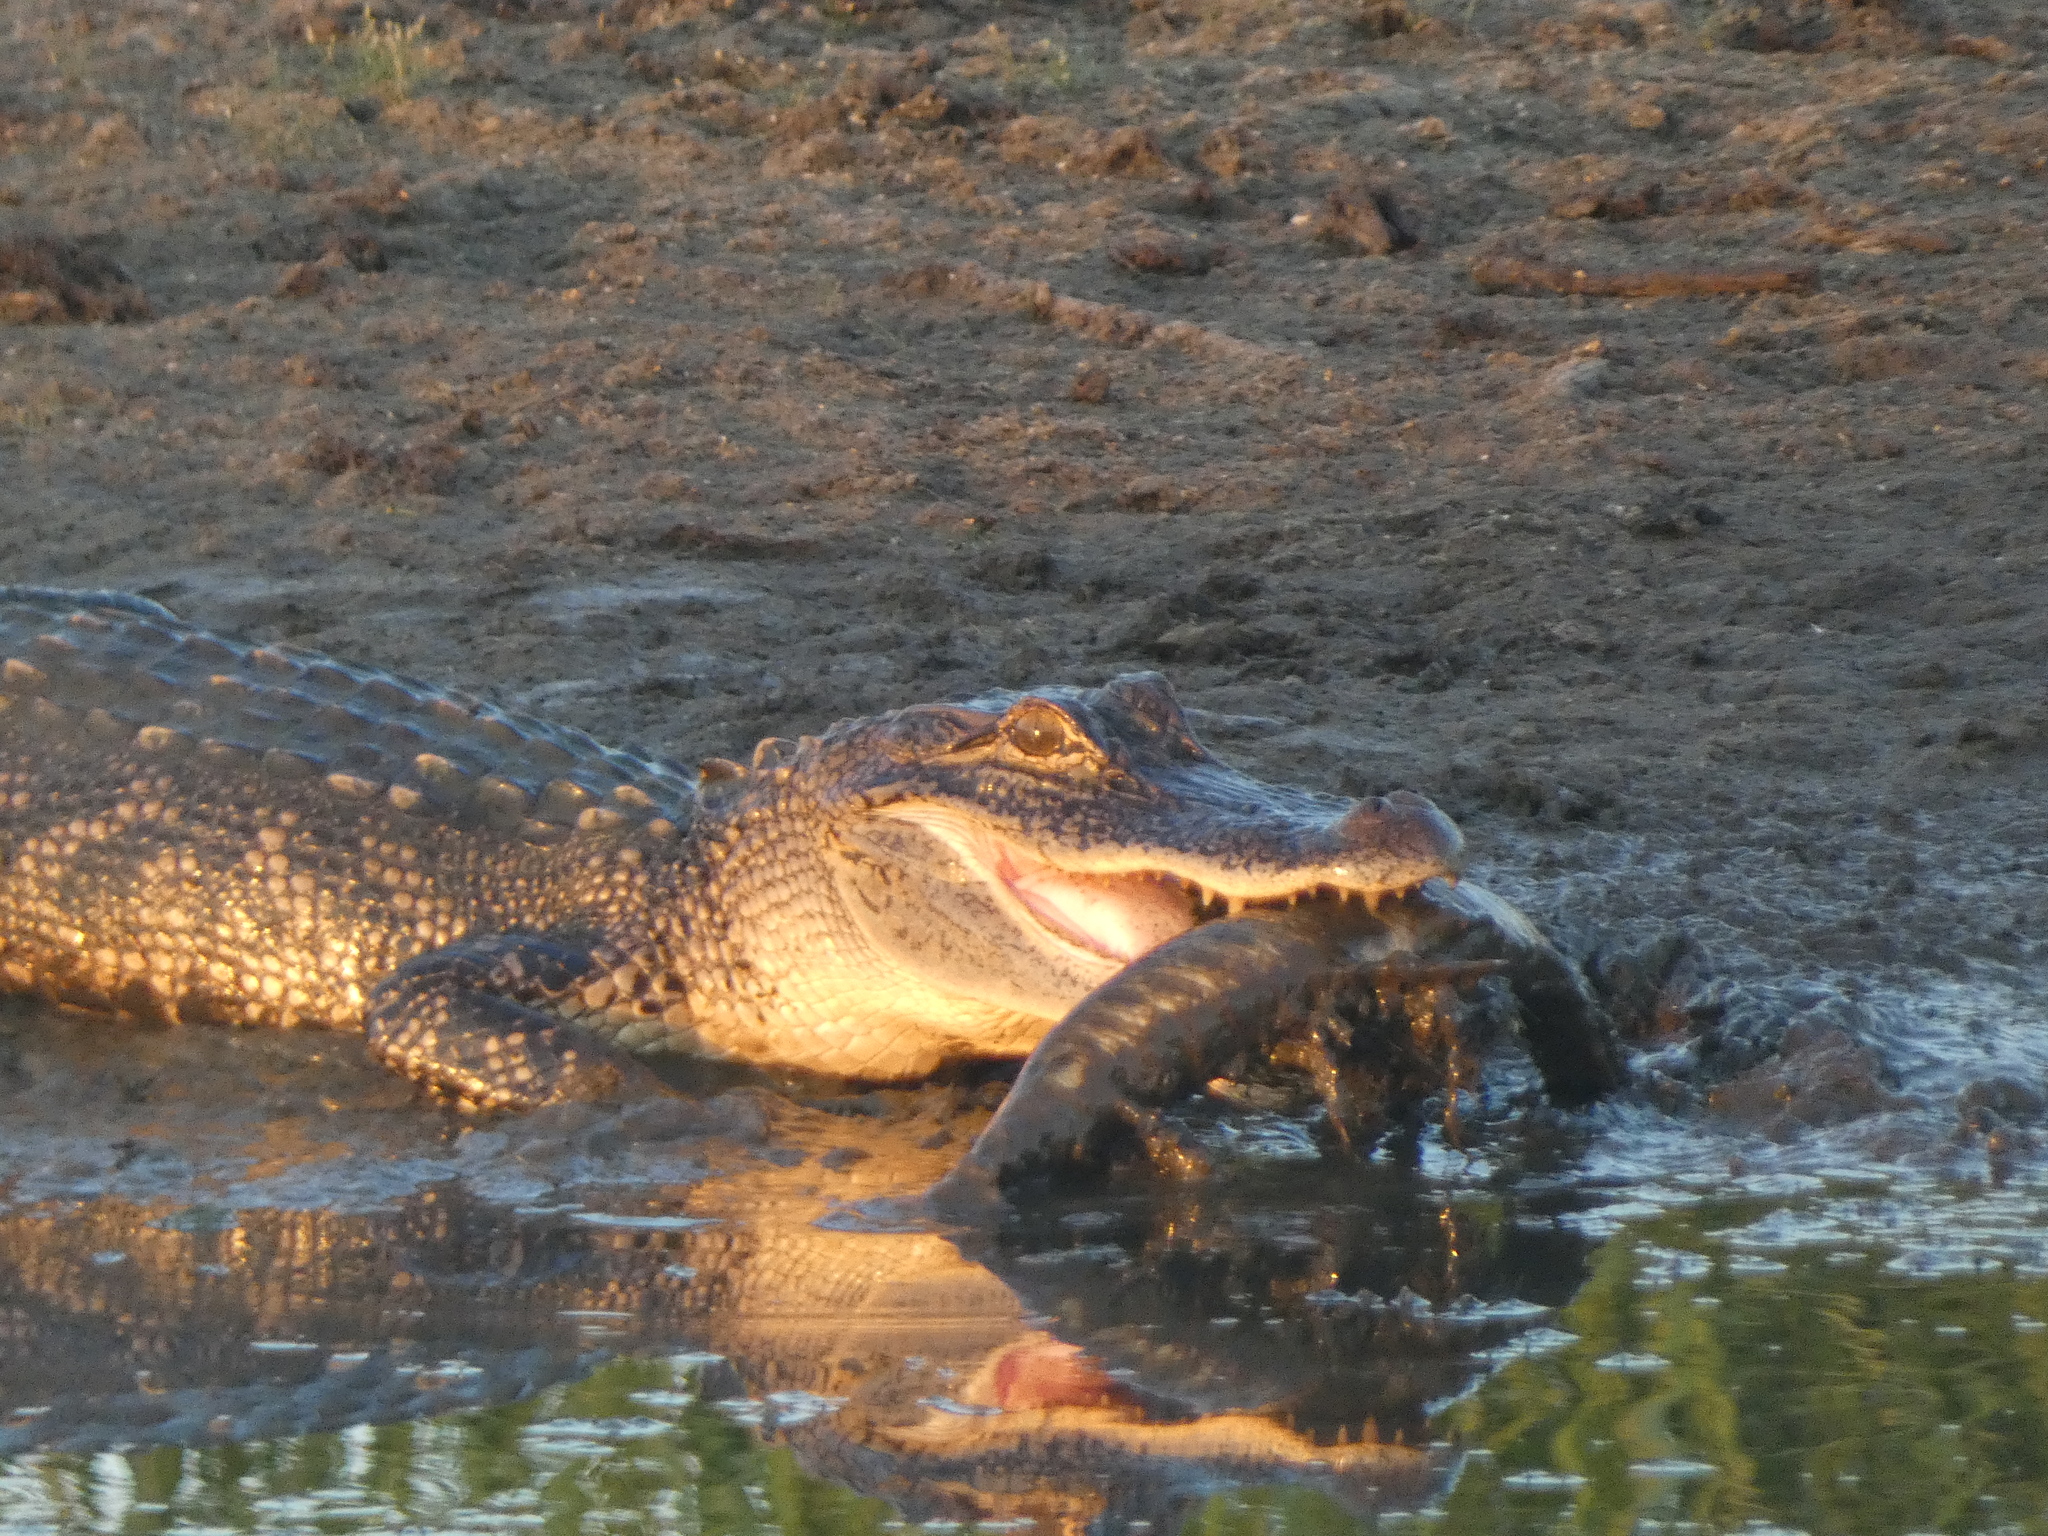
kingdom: Animalia
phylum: Chordata
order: Lepisosteiformes
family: Lepisosteidae
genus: Lepisosteus
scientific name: Lepisosteus oculatus
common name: Spotted gar
